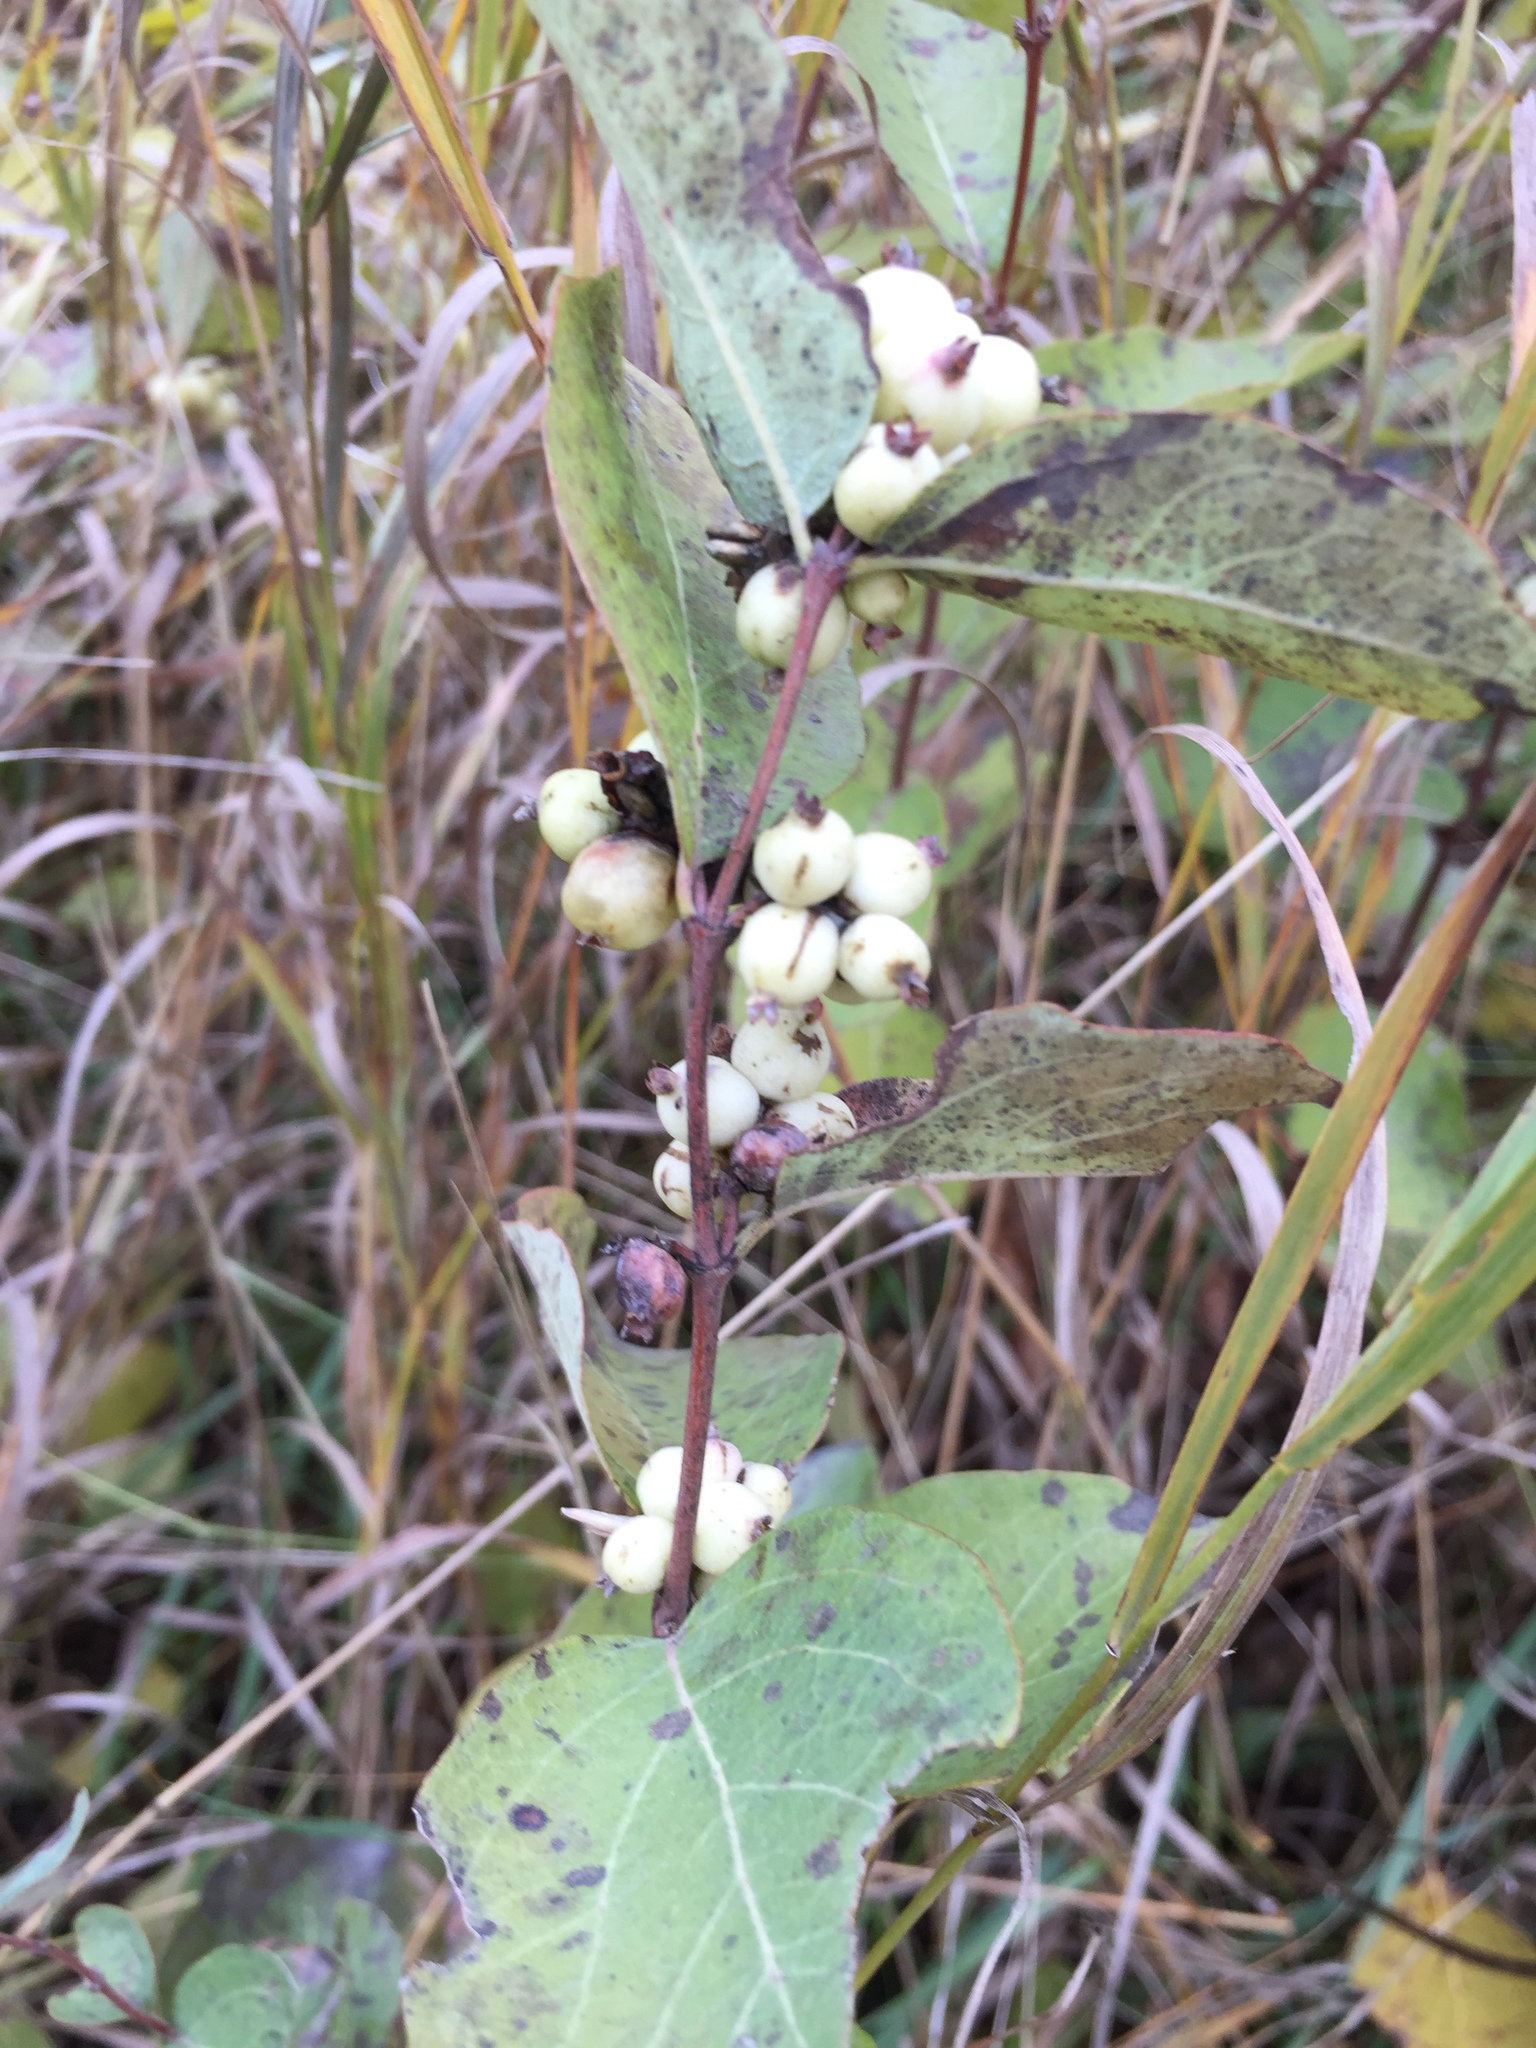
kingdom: Plantae
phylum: Tracheophyta
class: Magnoliopsida
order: Dipsacales
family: Caprifoliaceae
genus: Symphoricarpos
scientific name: Symphoricarpos occidentalis
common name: Wolfberry
